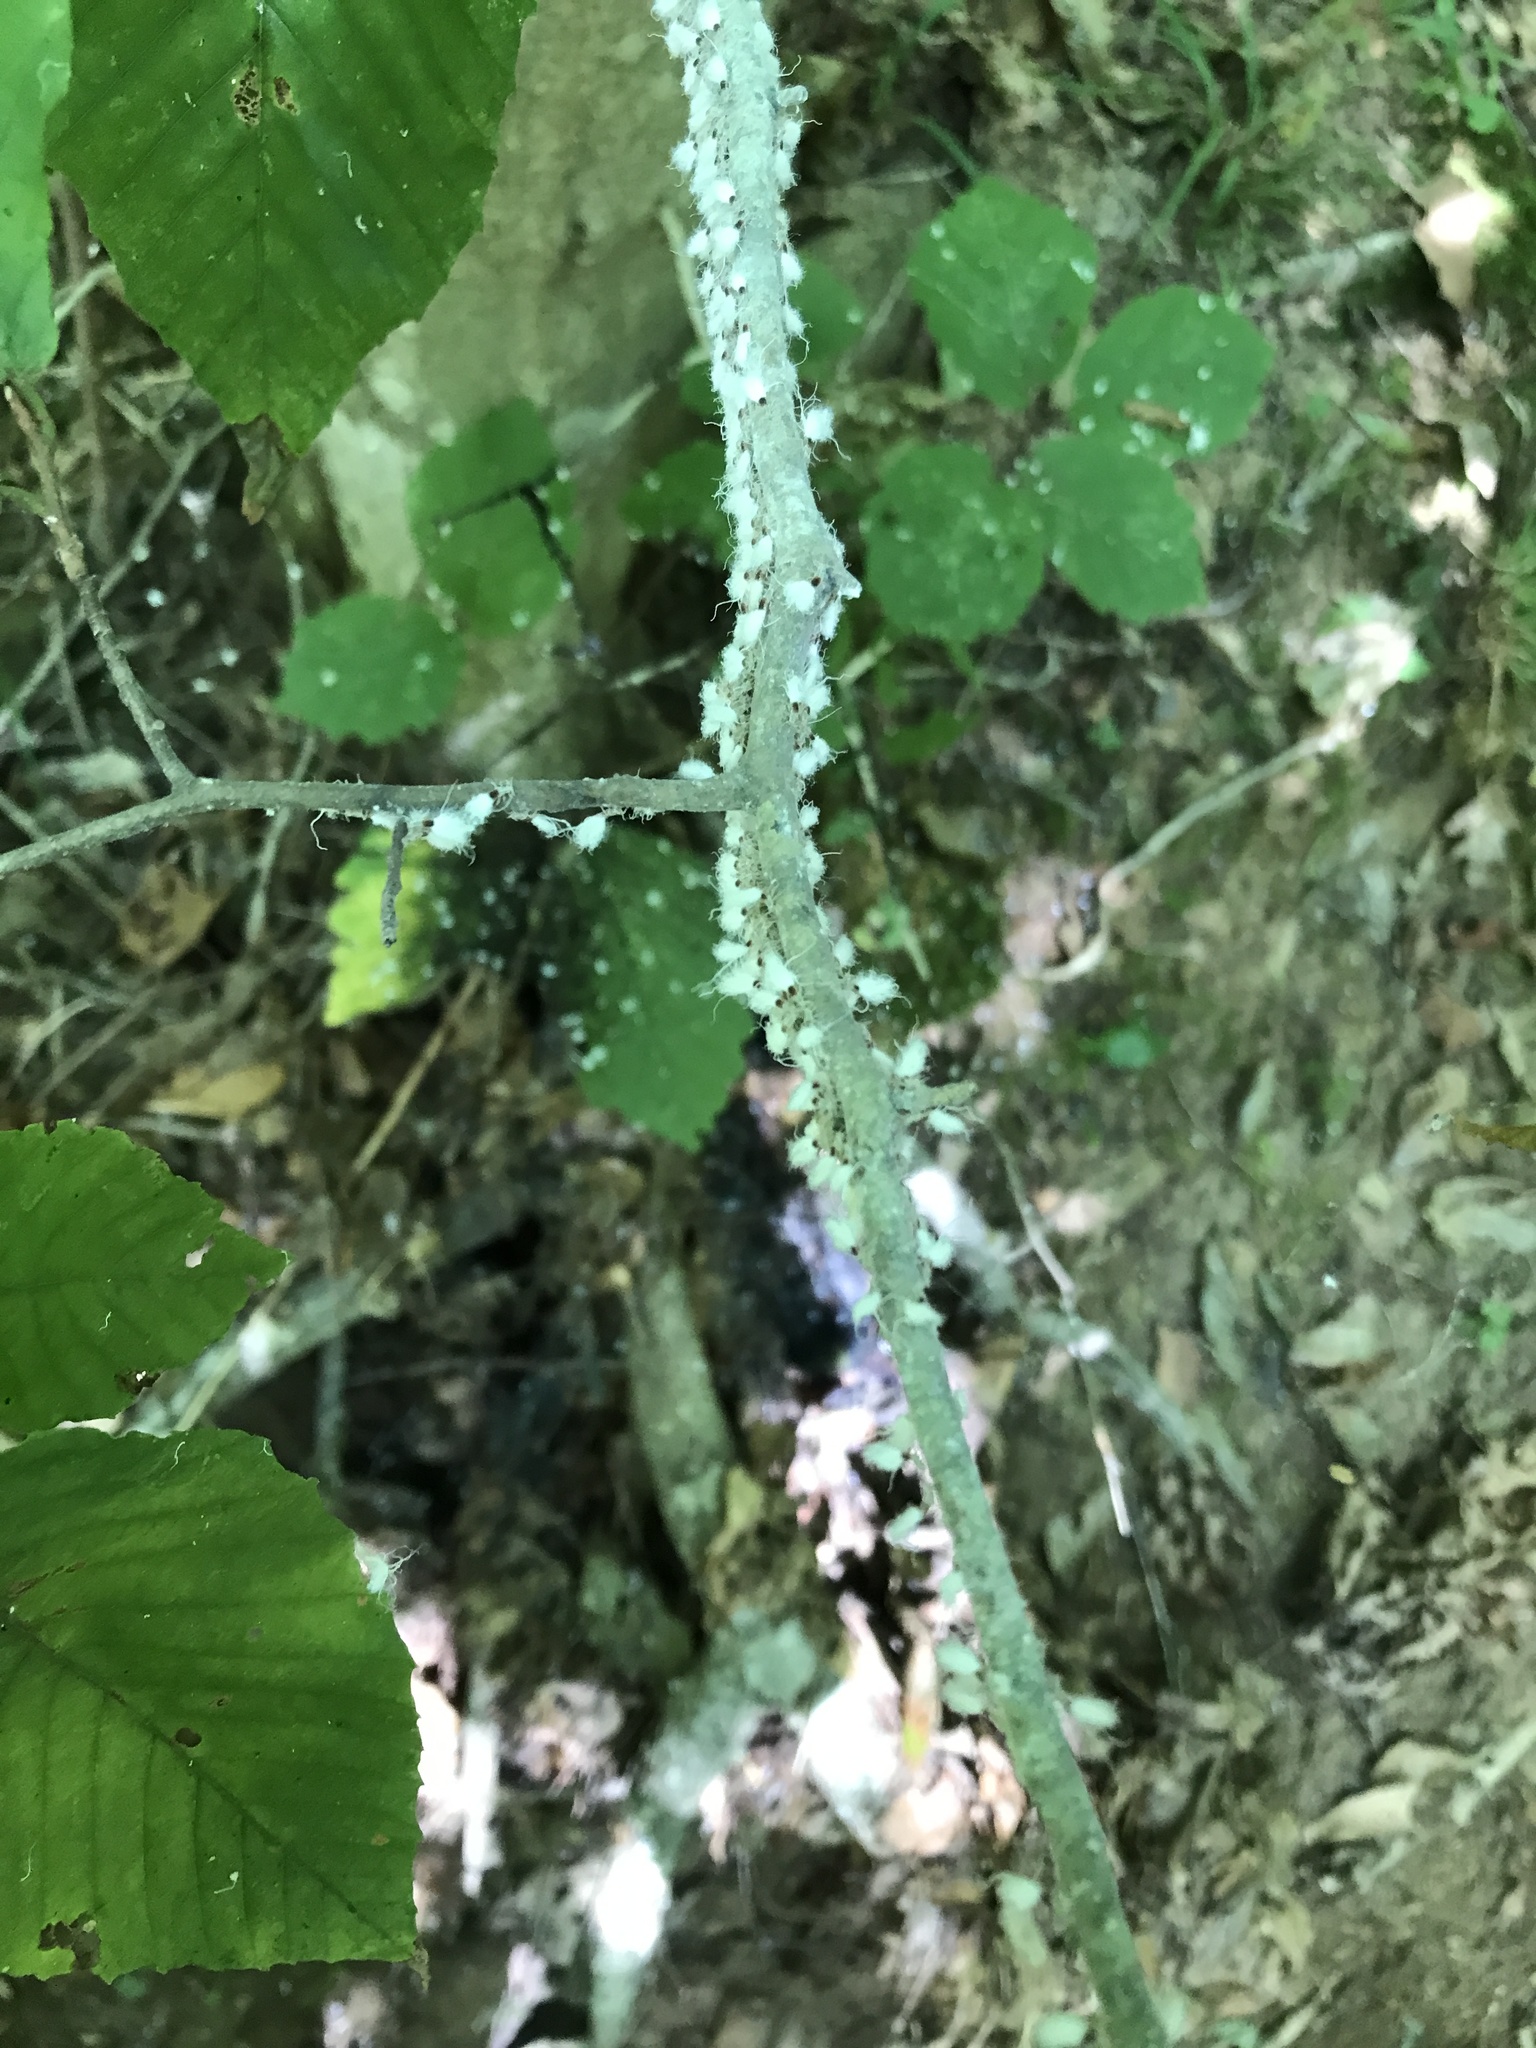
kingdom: Fungi
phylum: Ascomycota
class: Dothideomycetes
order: Capnodiales
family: Capnodiaceae
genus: Scorias
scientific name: Scorias spongiosa
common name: Black sooty mold
